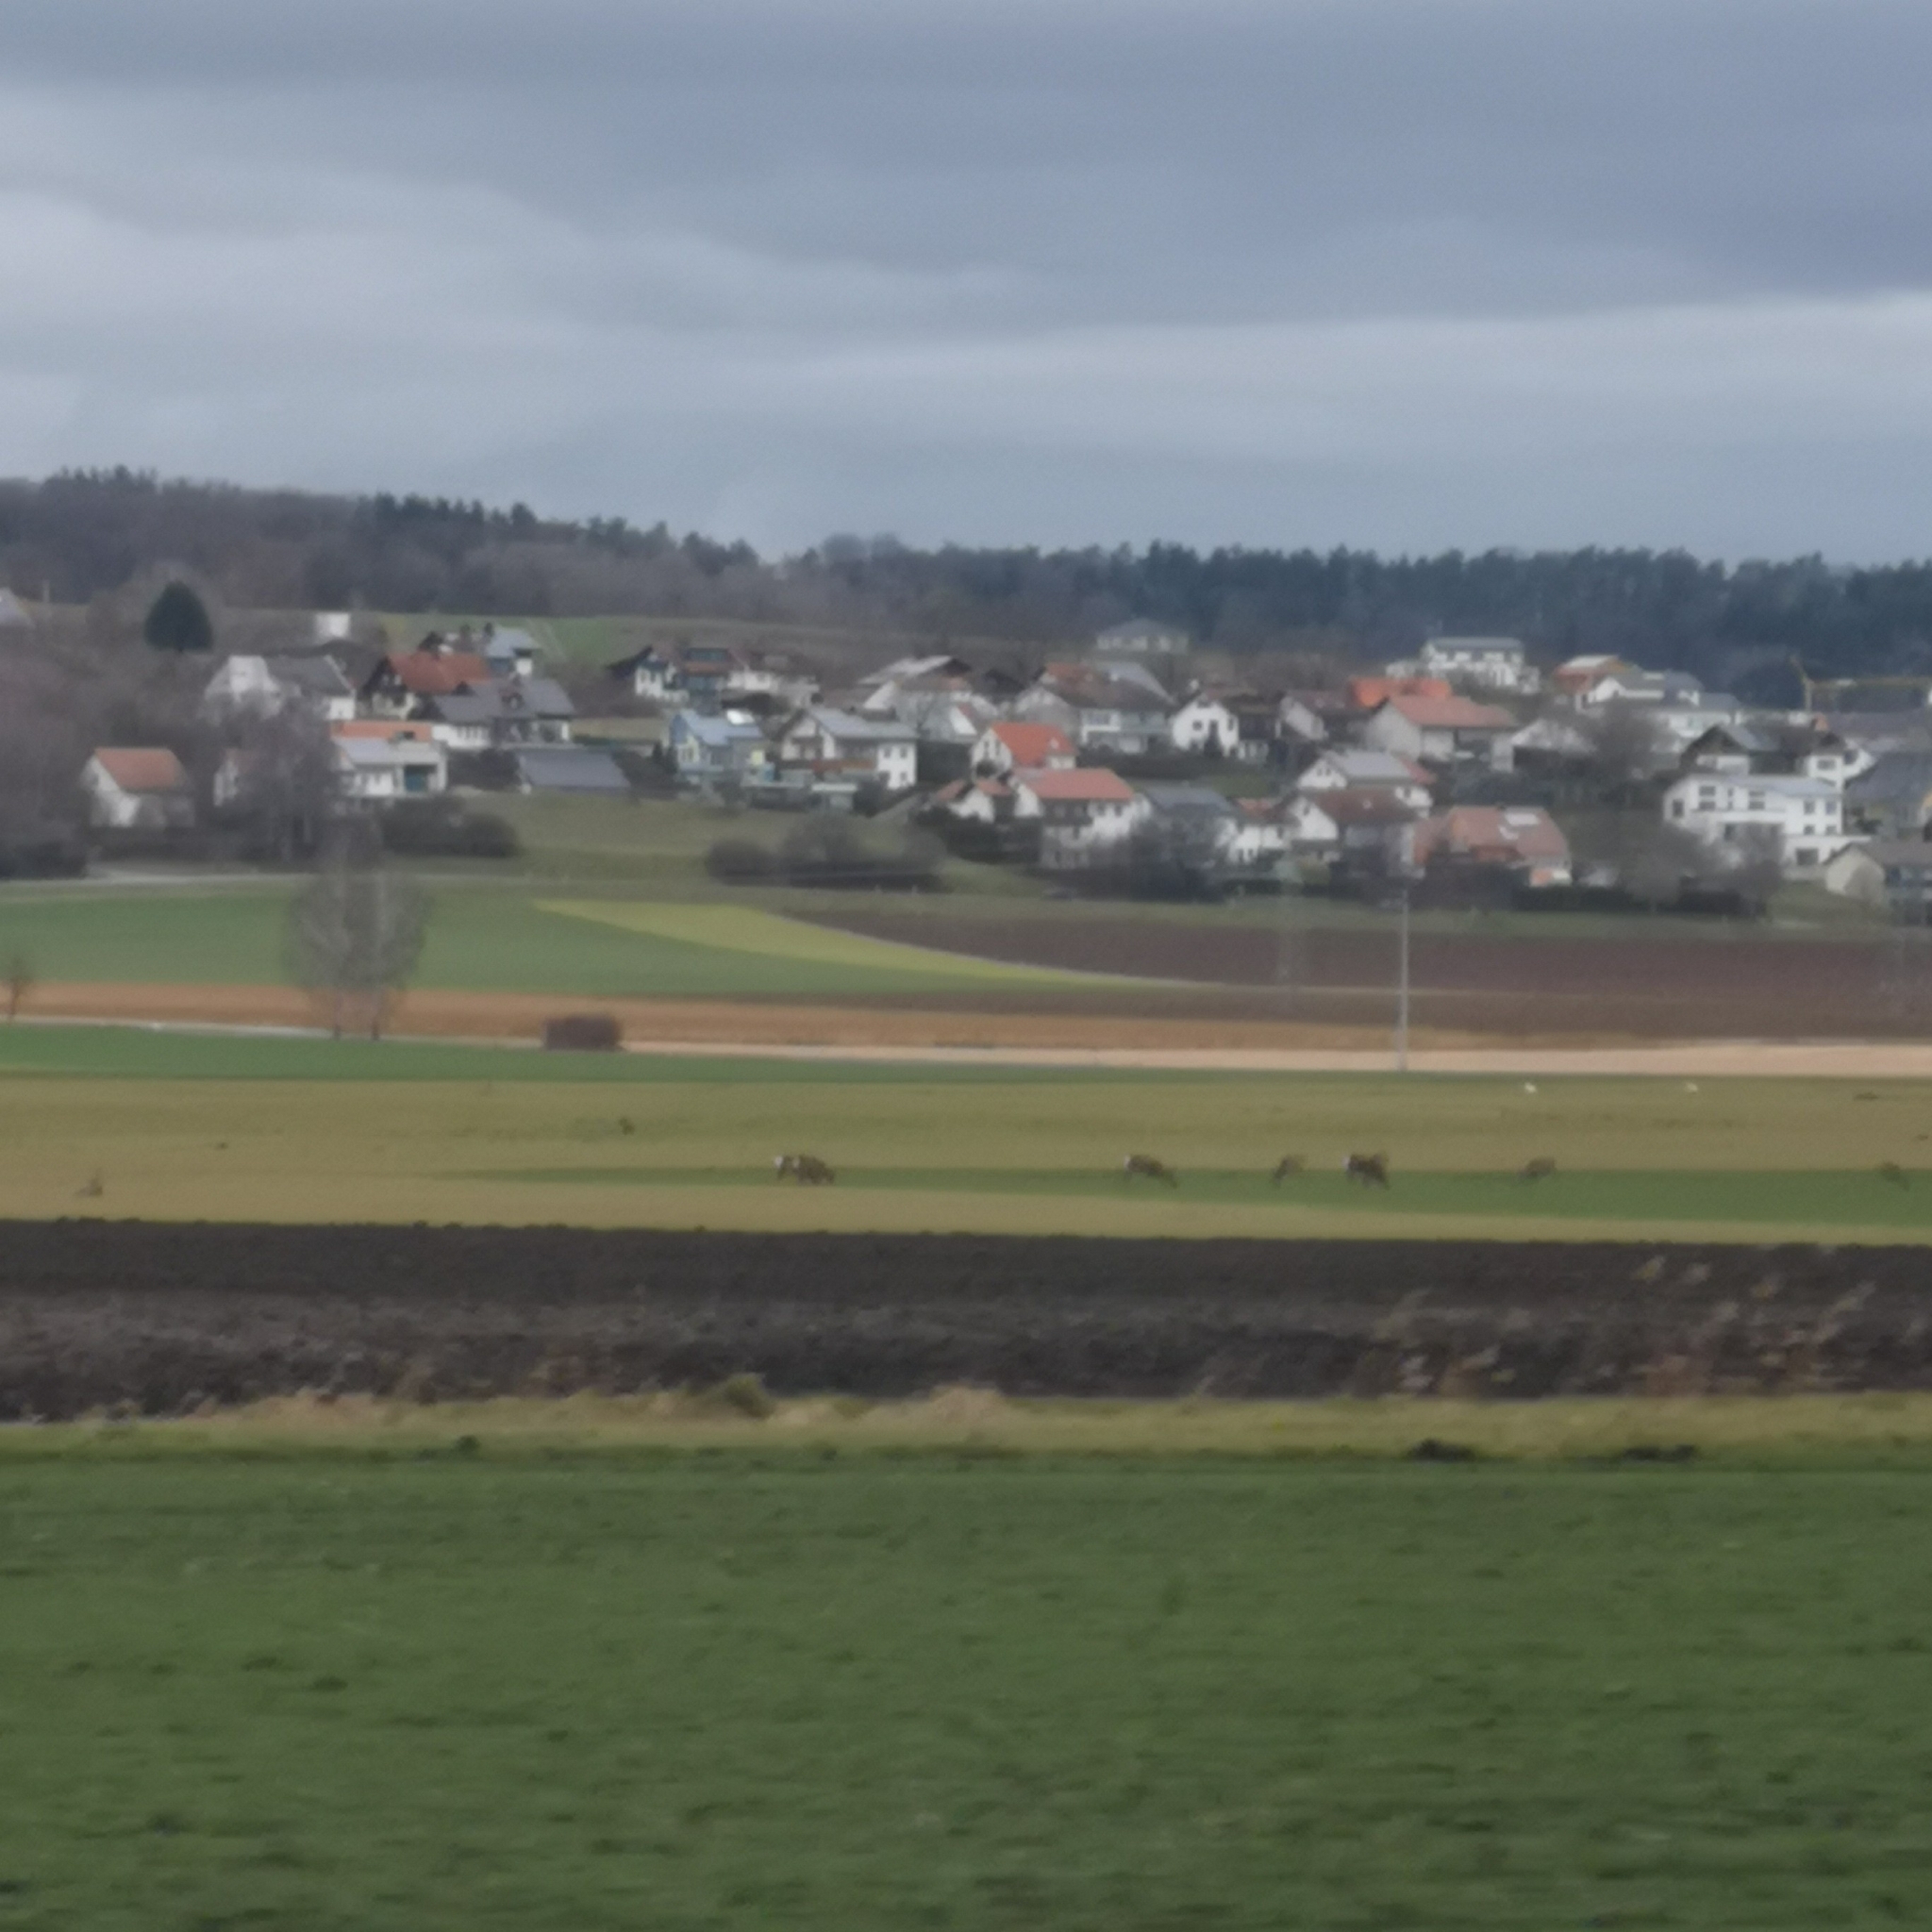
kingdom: Animalia
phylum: Chordata
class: Mammalia
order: Artiodactyla
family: Cervidae
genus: Capreolus
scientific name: Capreolus capreolus
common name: Western roe deer
